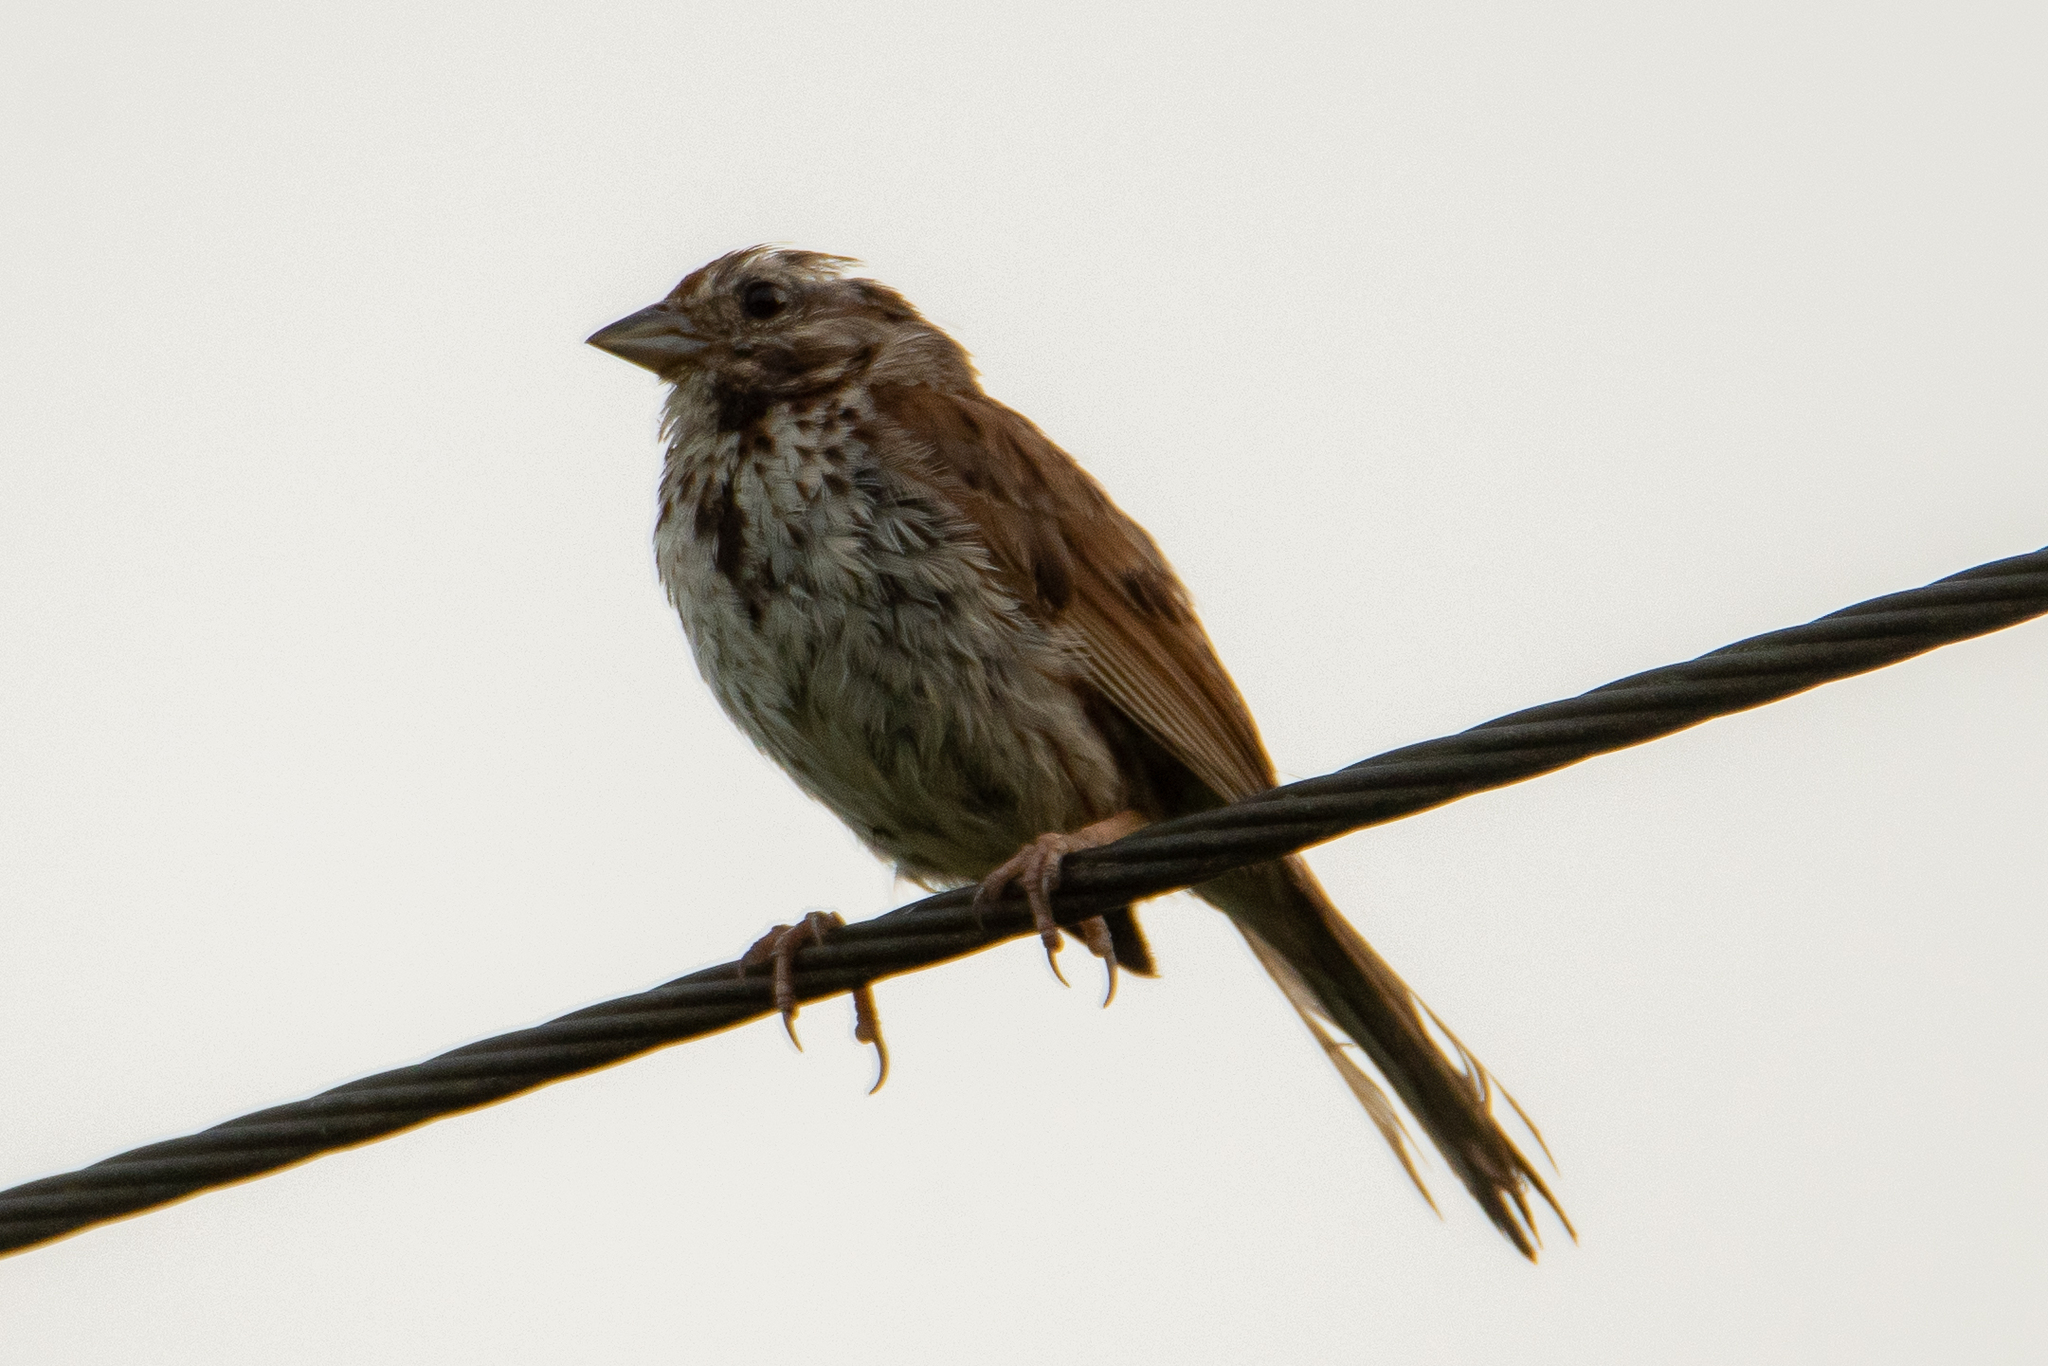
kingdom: Animalia
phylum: Chordata
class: Aves
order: Passeriformes
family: Passerellidae
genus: Melospiza
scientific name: Melospiza melodia
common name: Song sparrow
